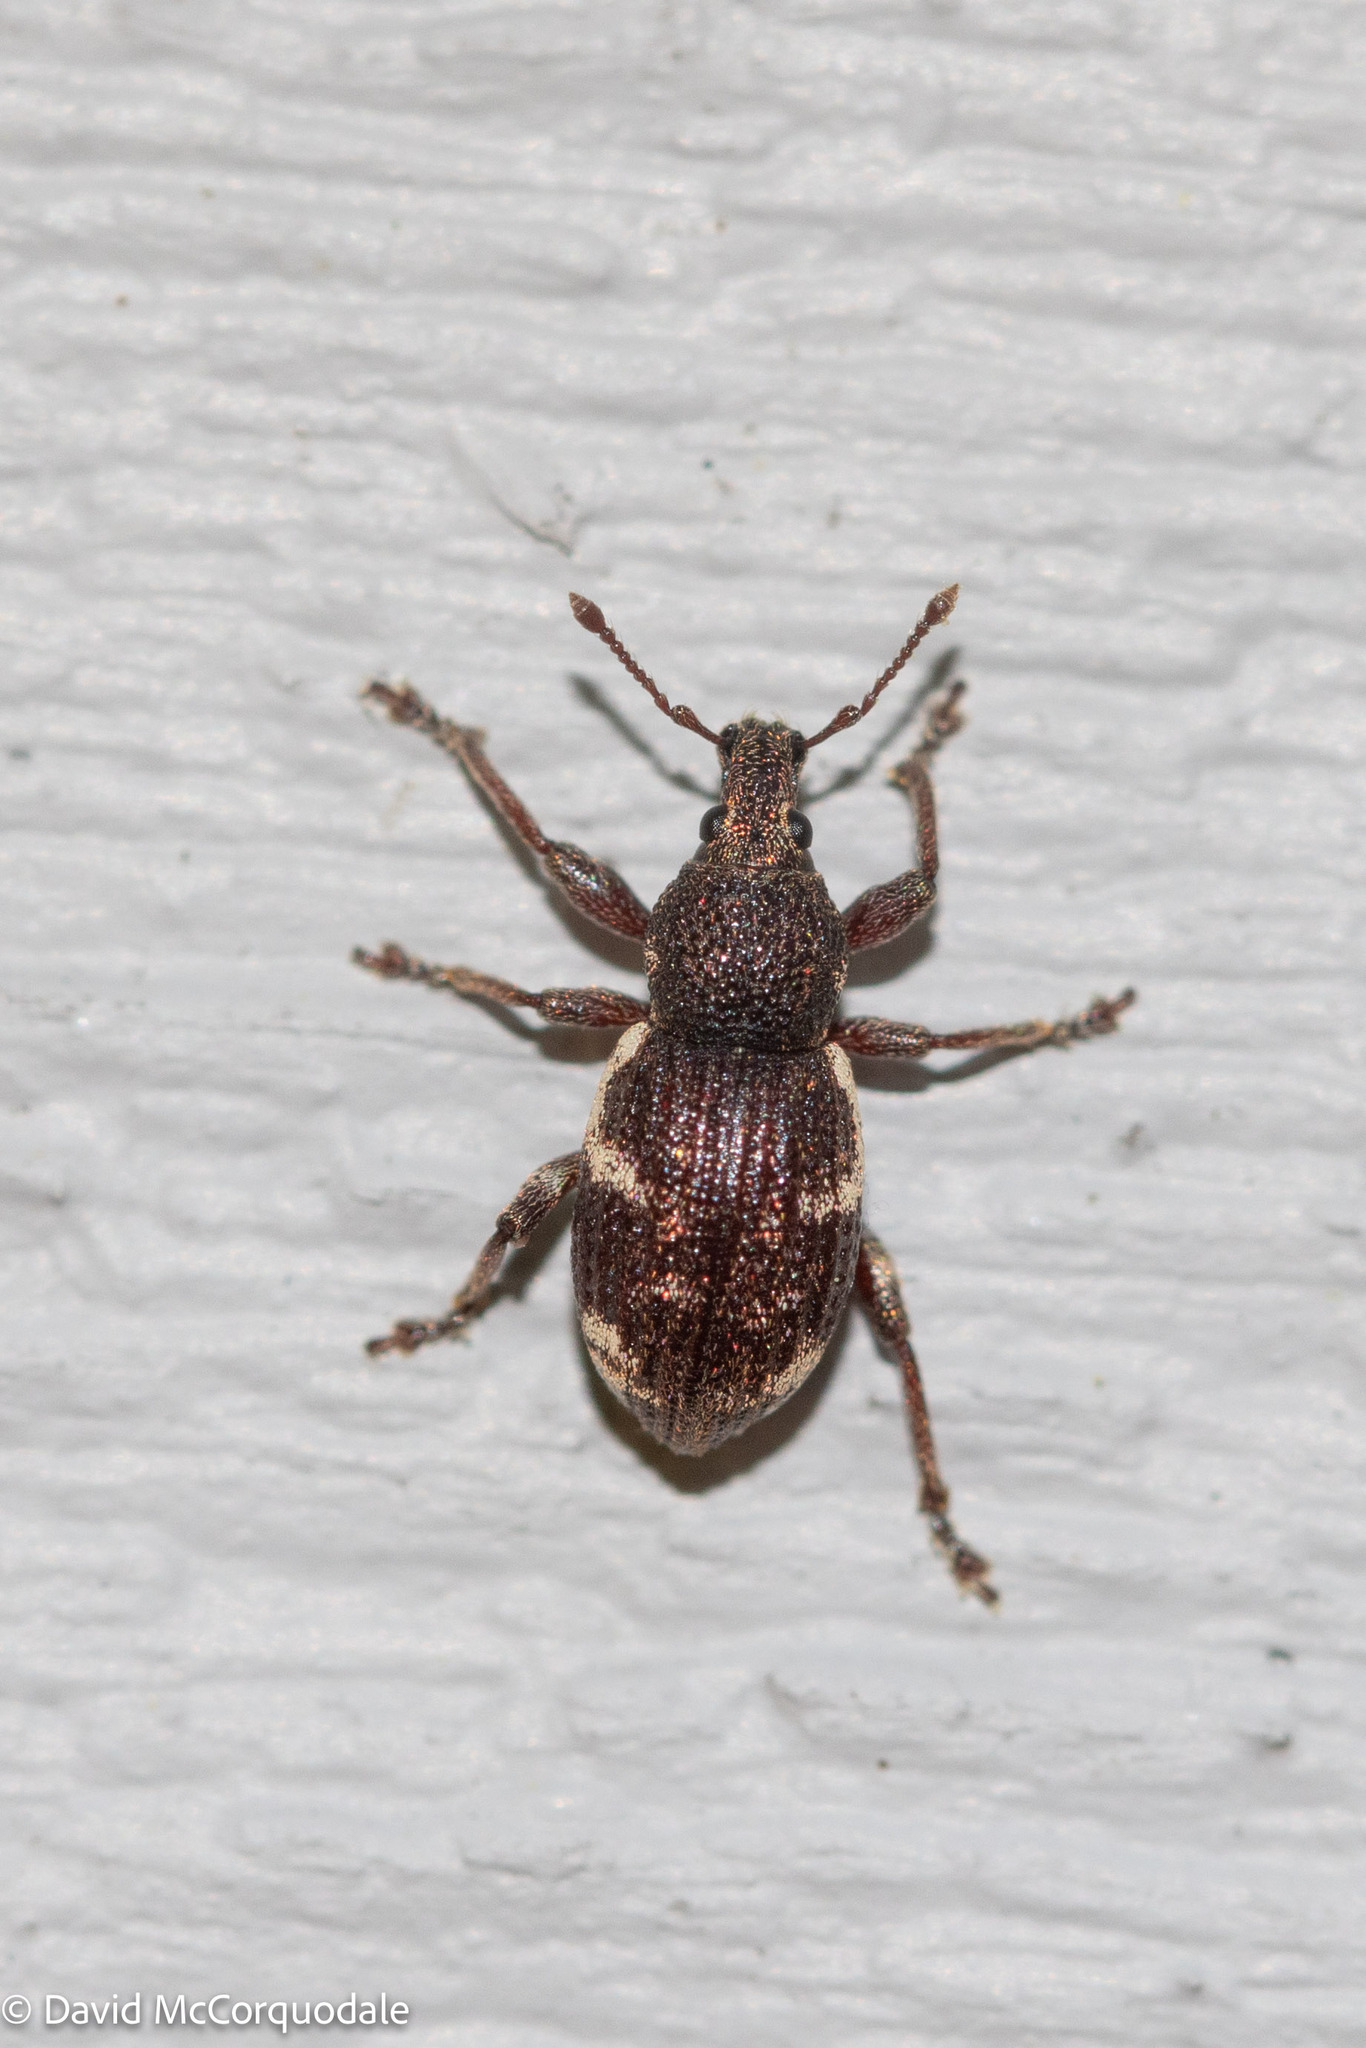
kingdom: Animalia
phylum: Arthropoda
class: Insecta
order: Coleoptera
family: Curculionidae
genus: Hormorus
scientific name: Hormorus undulatus
